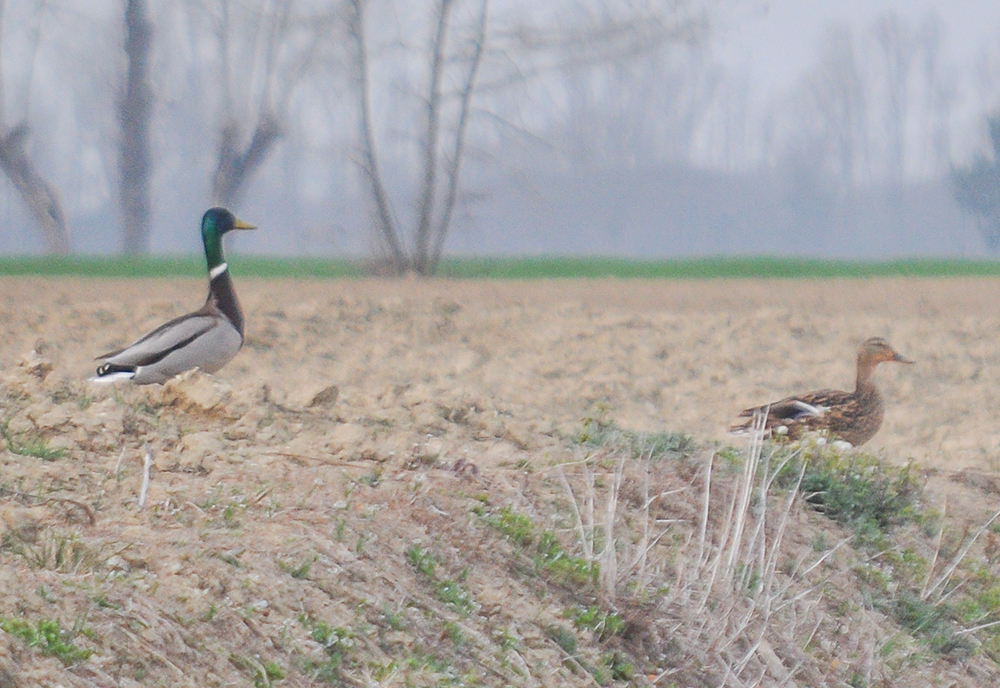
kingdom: Animalia
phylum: Chordata
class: Aves
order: Anseriformes
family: Anatidae
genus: Anas
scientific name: Anas platyrhynchos
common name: Mallard
